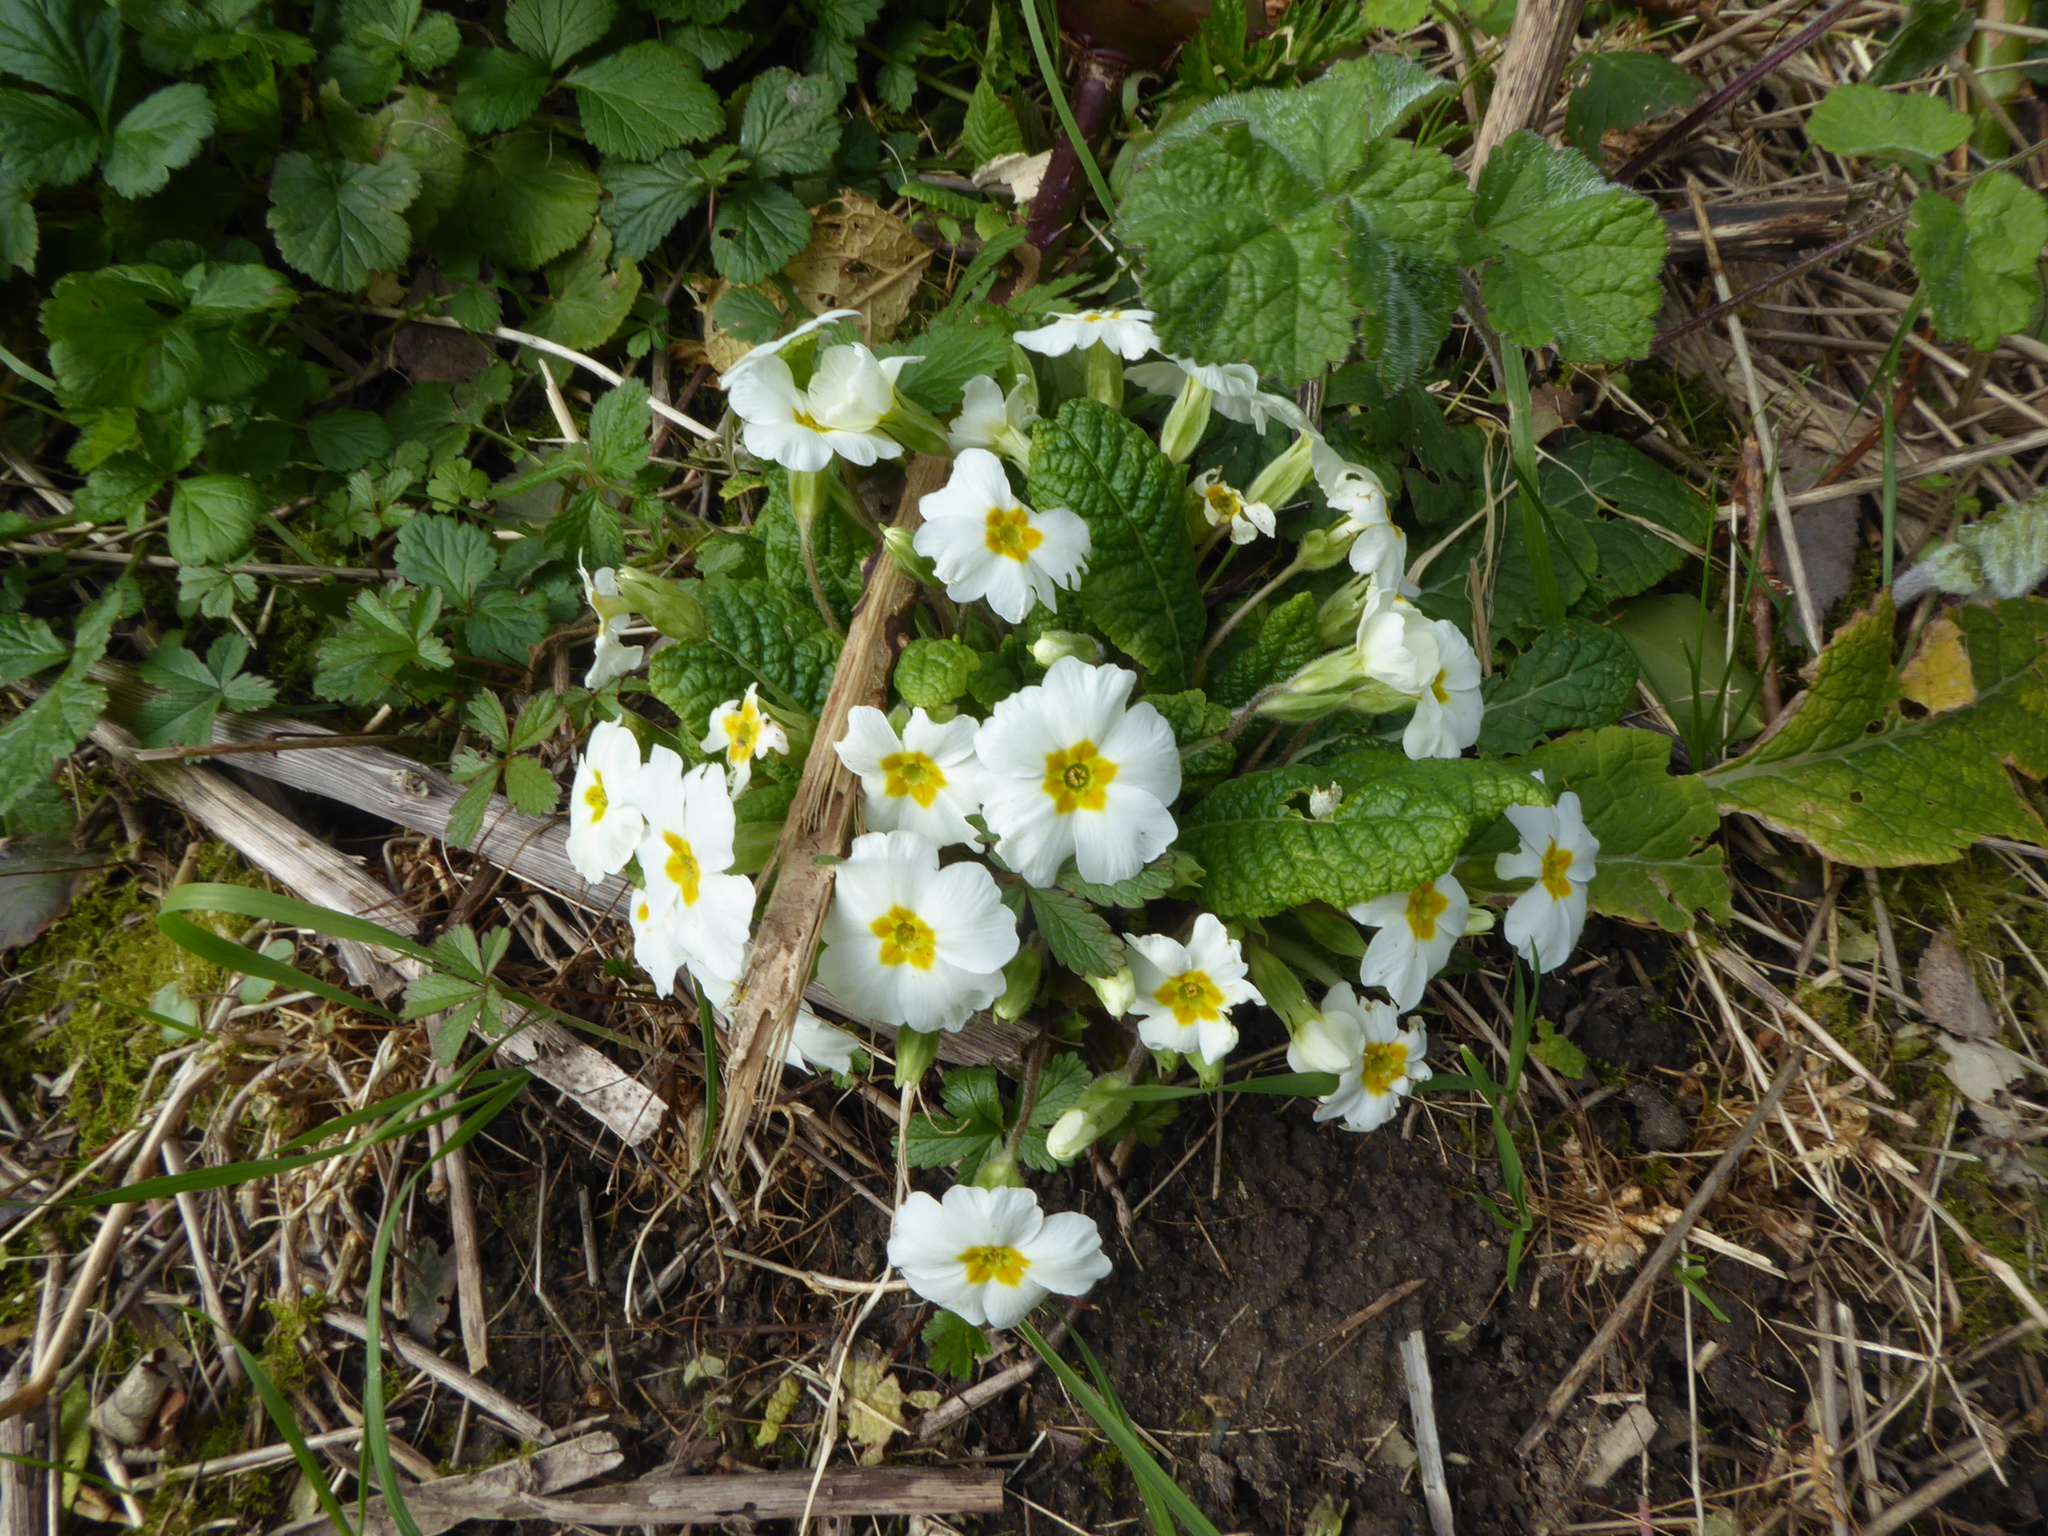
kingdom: Plantae
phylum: Tracheophyta
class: Magnoliopsida
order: Ericales
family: Primulaceae
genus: Primula
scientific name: Primula vulgaris
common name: Primrose
